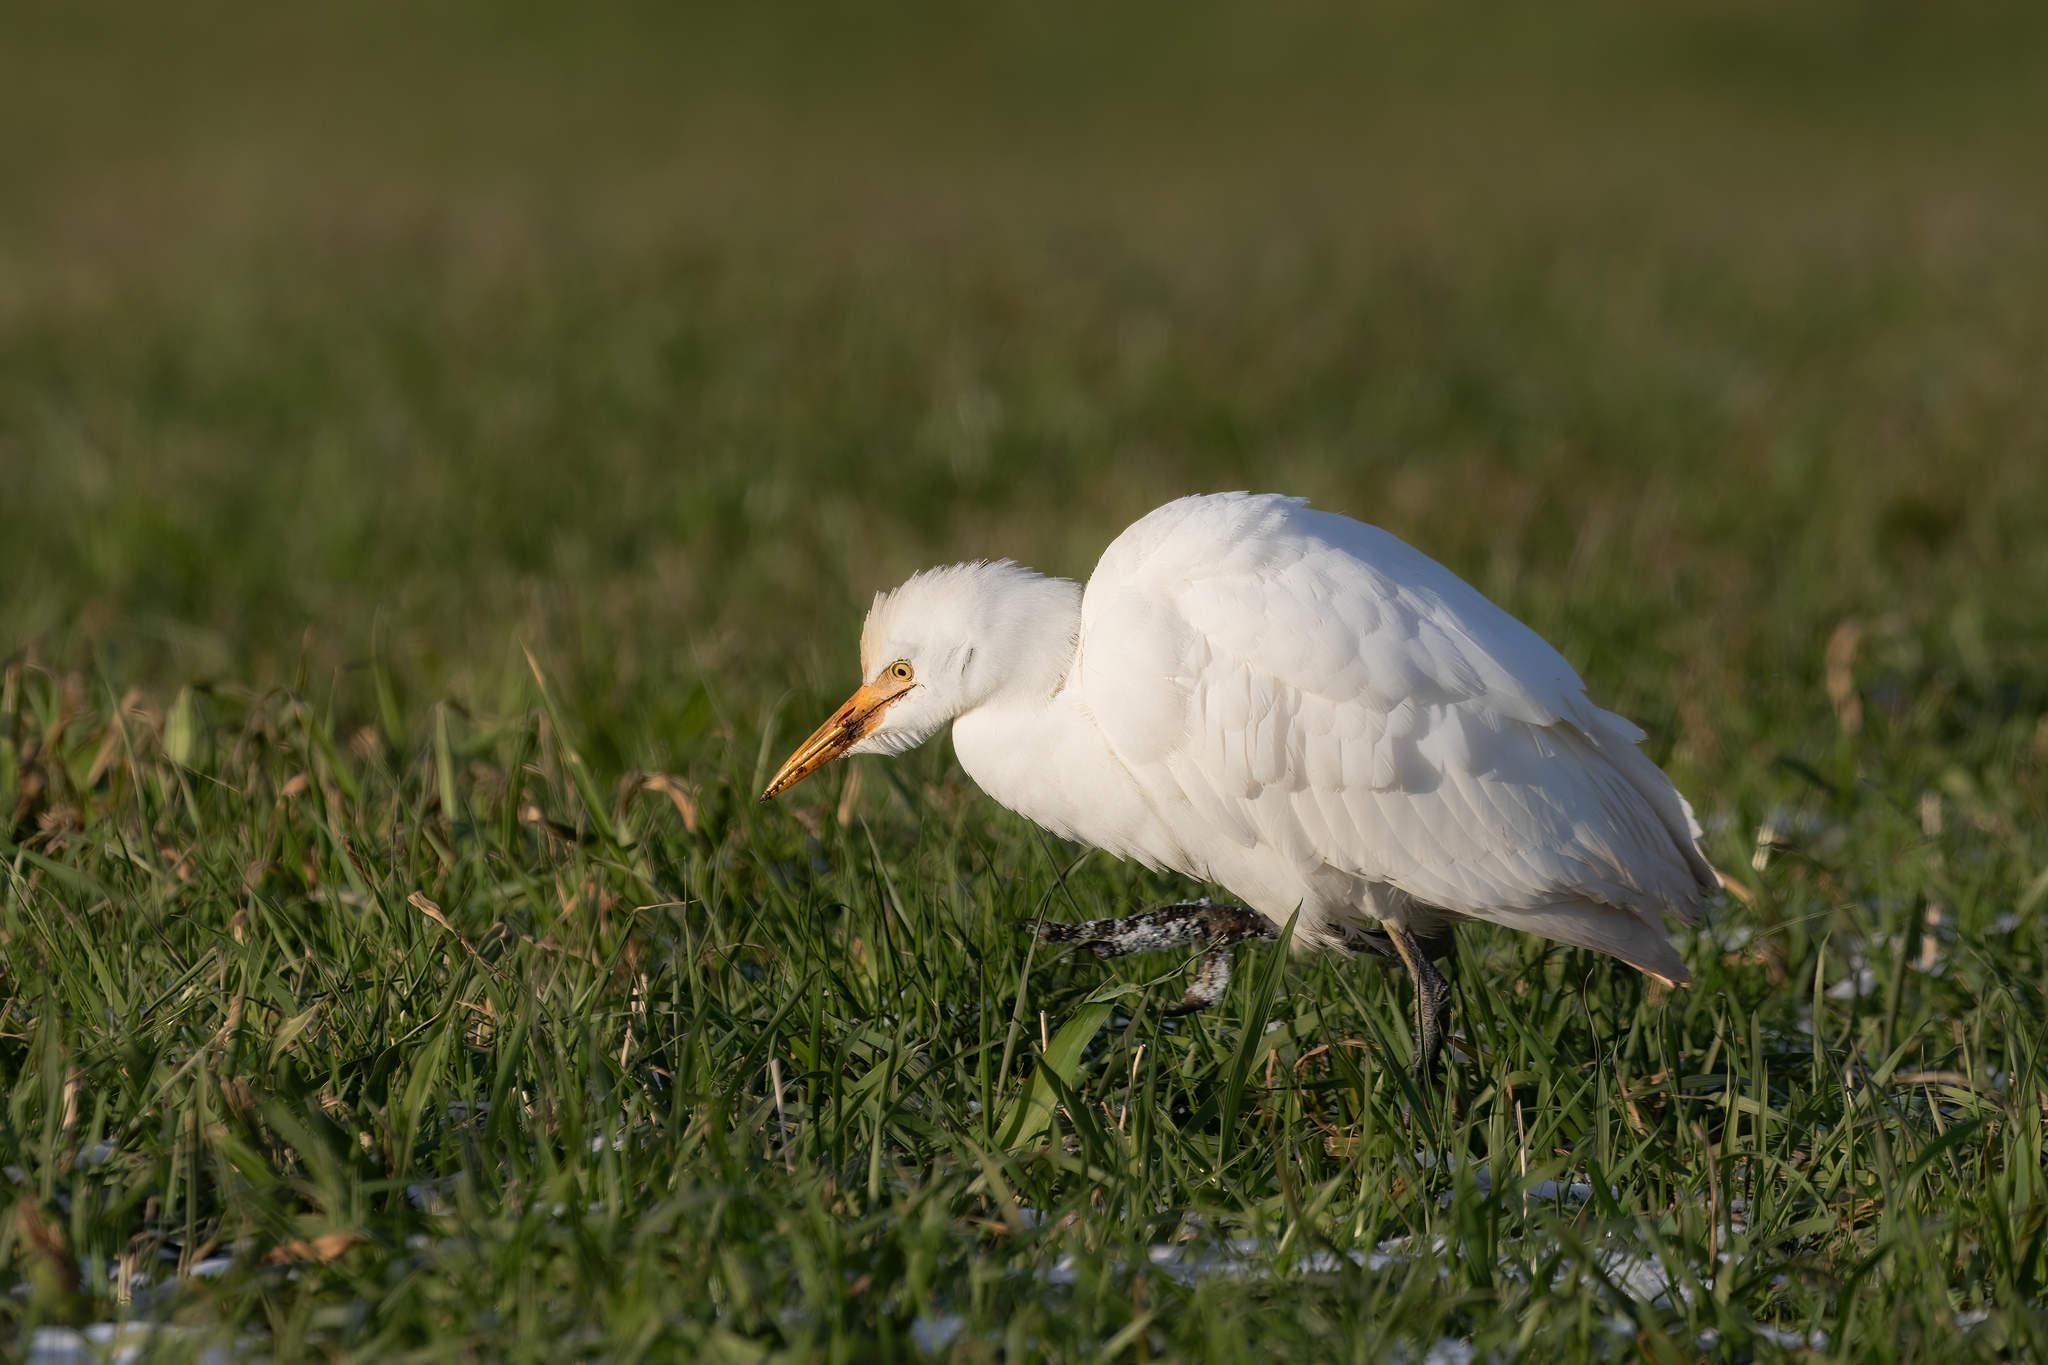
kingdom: Animalia
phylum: Chordata
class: Aves
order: Pelecaniformes
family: Ardeidae
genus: Bubulcus
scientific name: Bubulcus ibis
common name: Cattle egret
